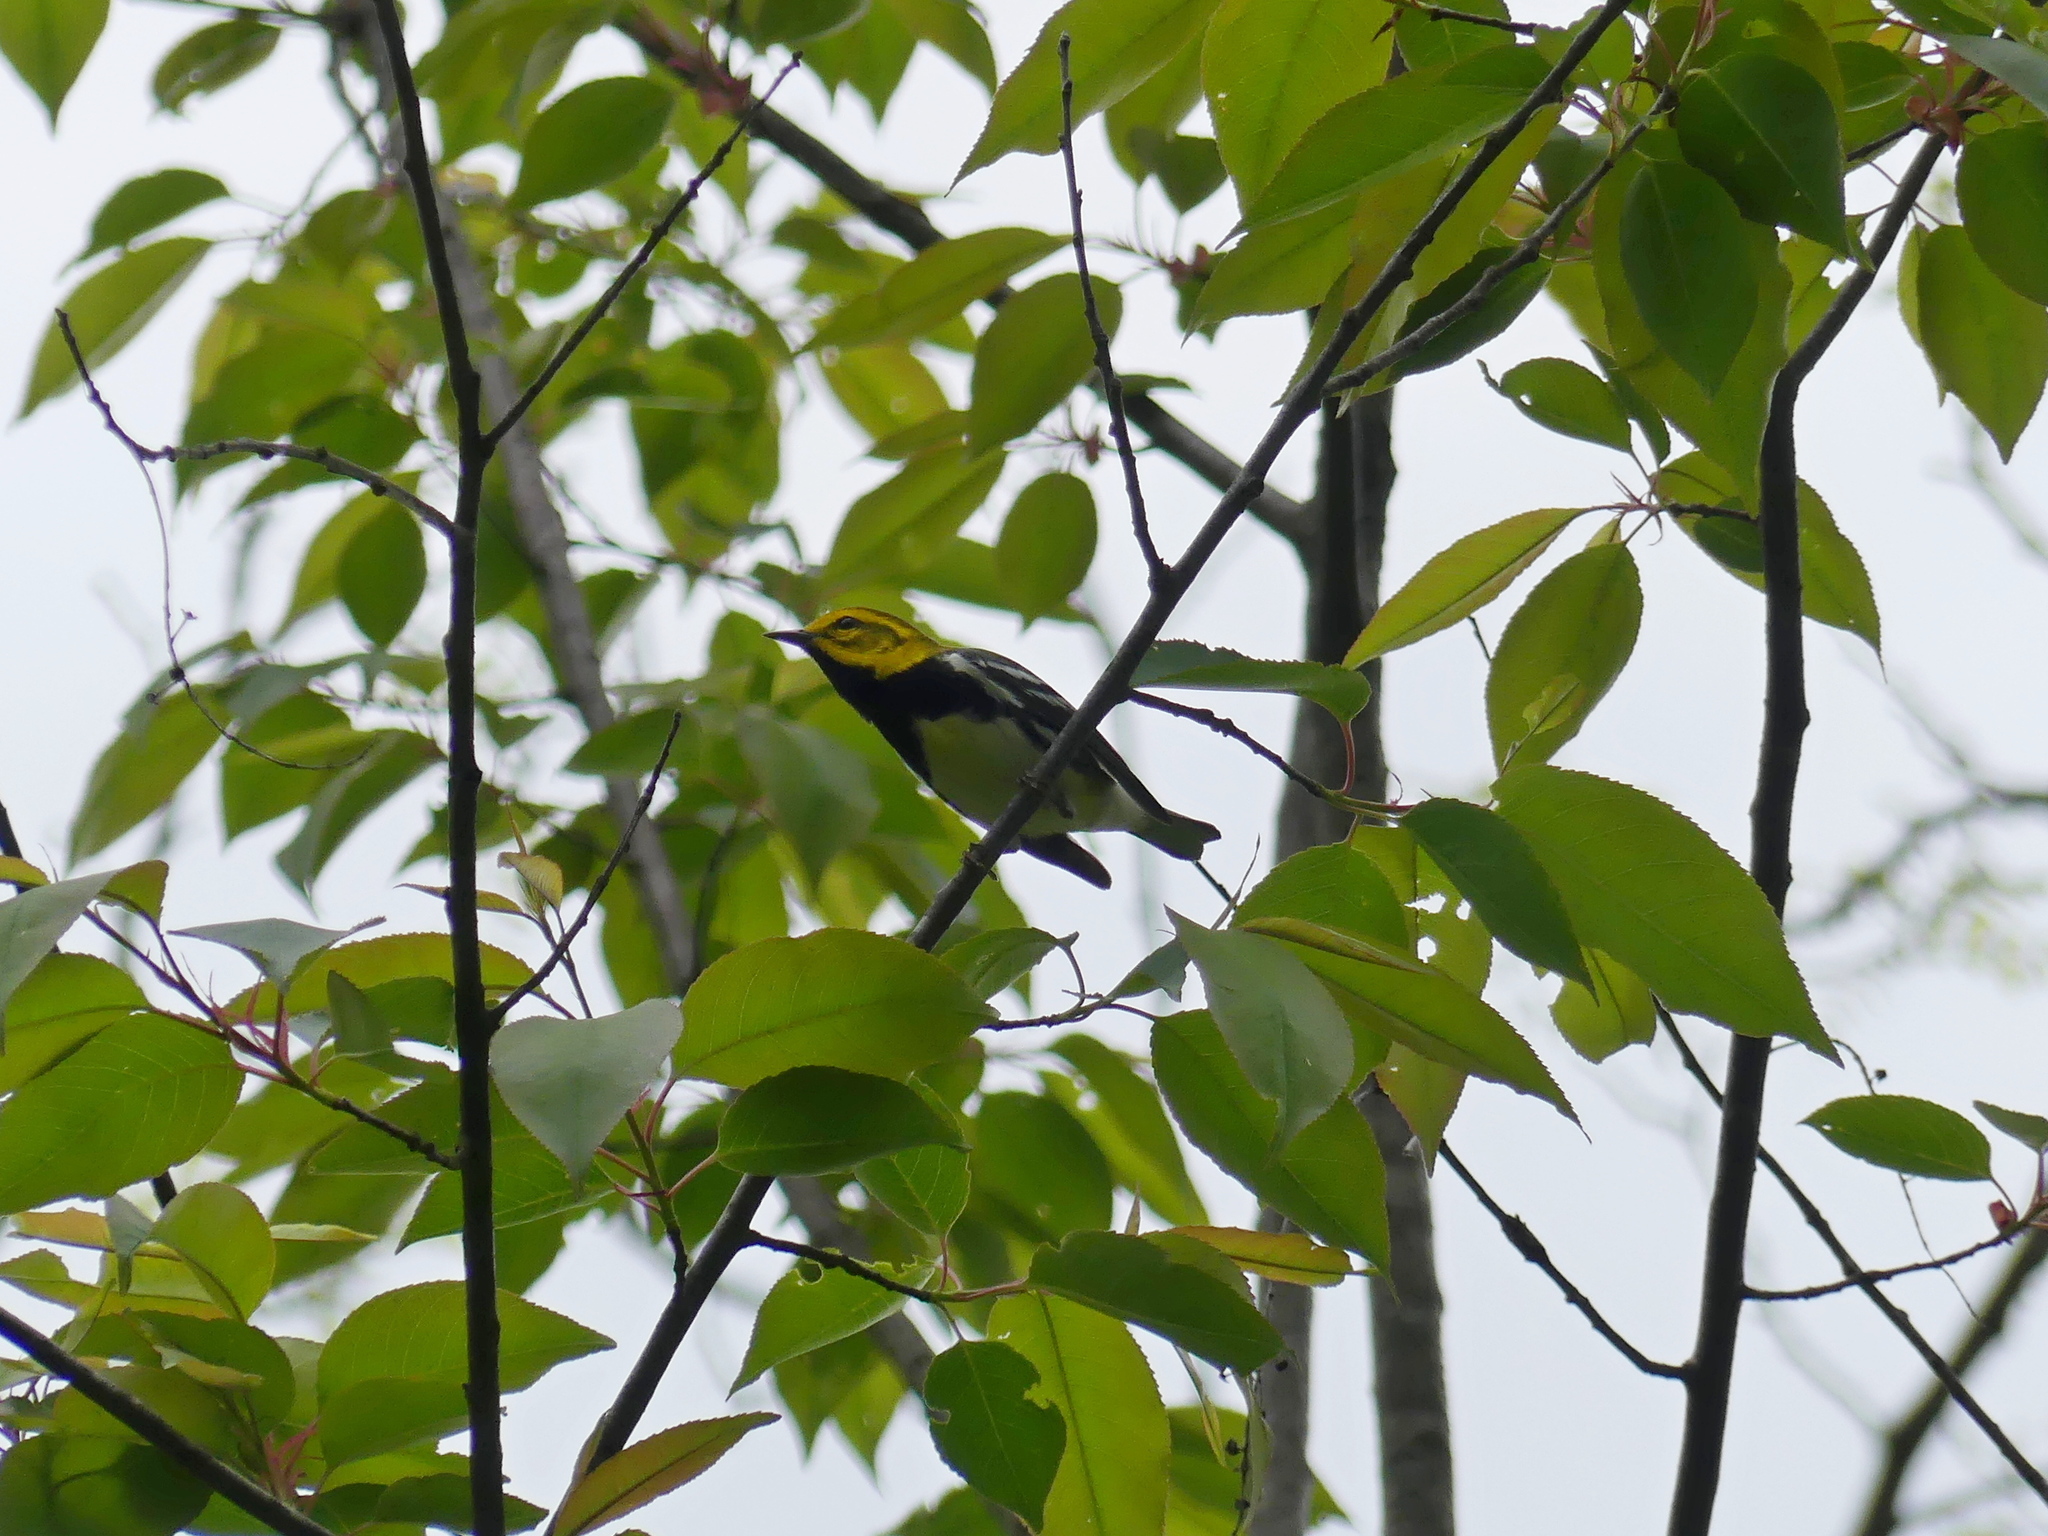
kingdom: Animalia
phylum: Chordata
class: Aves
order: Passeriformes
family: Parulidae
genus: Setophaga
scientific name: Setophaga virens
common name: Black-throated green warbler
